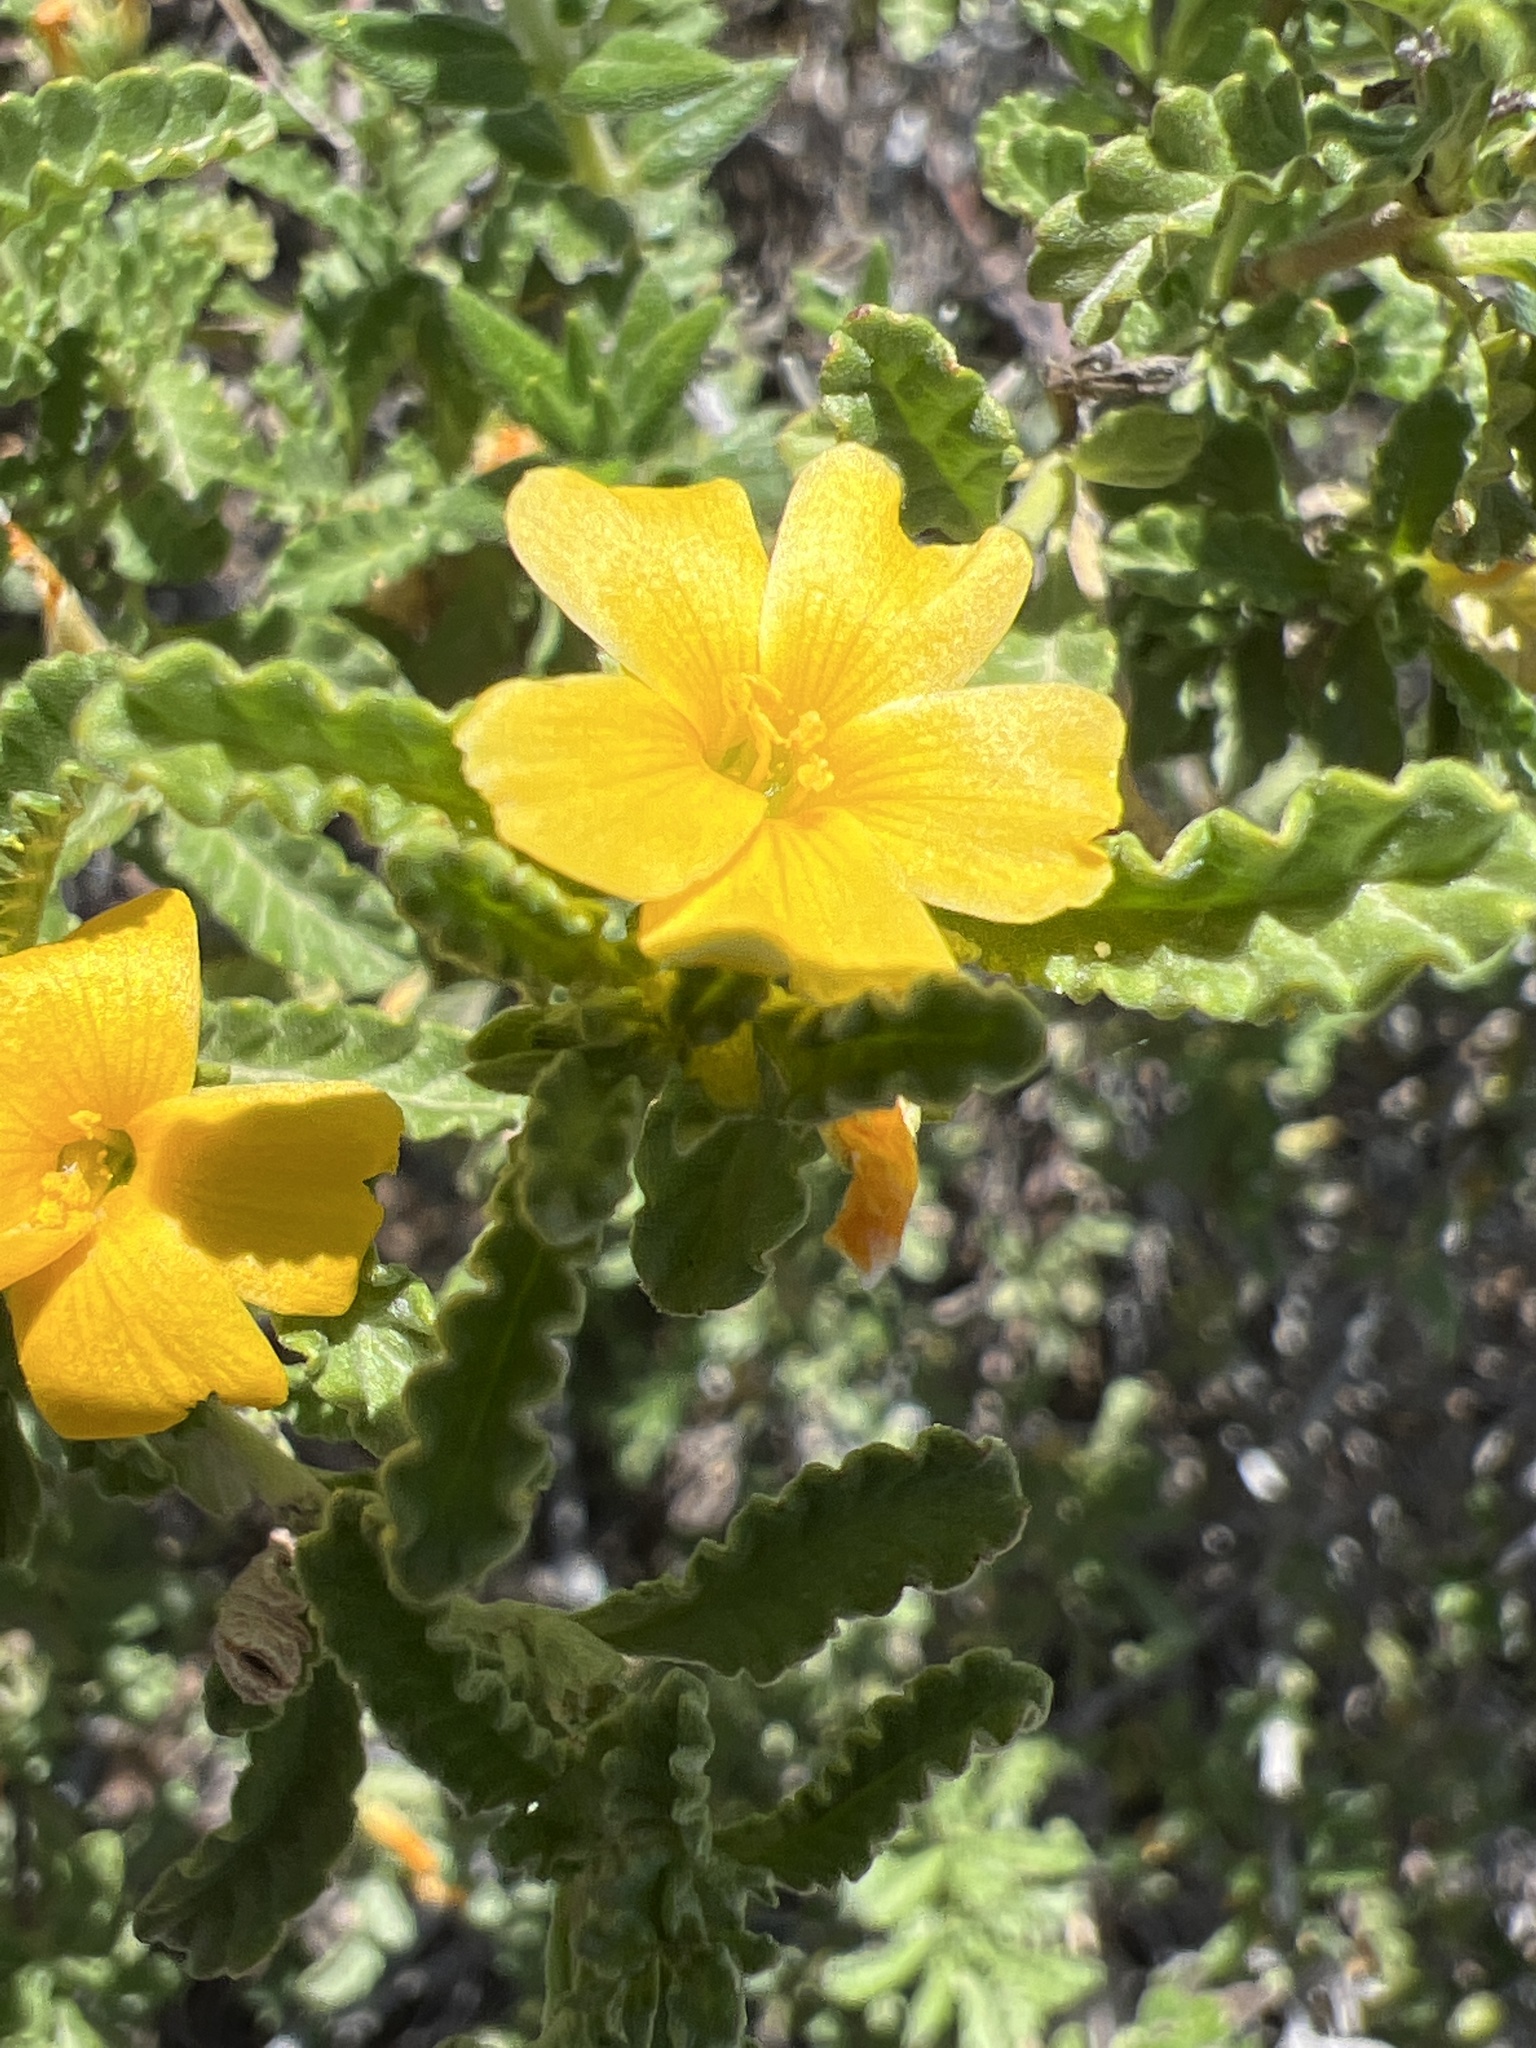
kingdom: Plantae
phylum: Tracheophyta
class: Magnoliopsida
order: Malpighiales
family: Turneraceae
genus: Turnera
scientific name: Turnera diffusa
